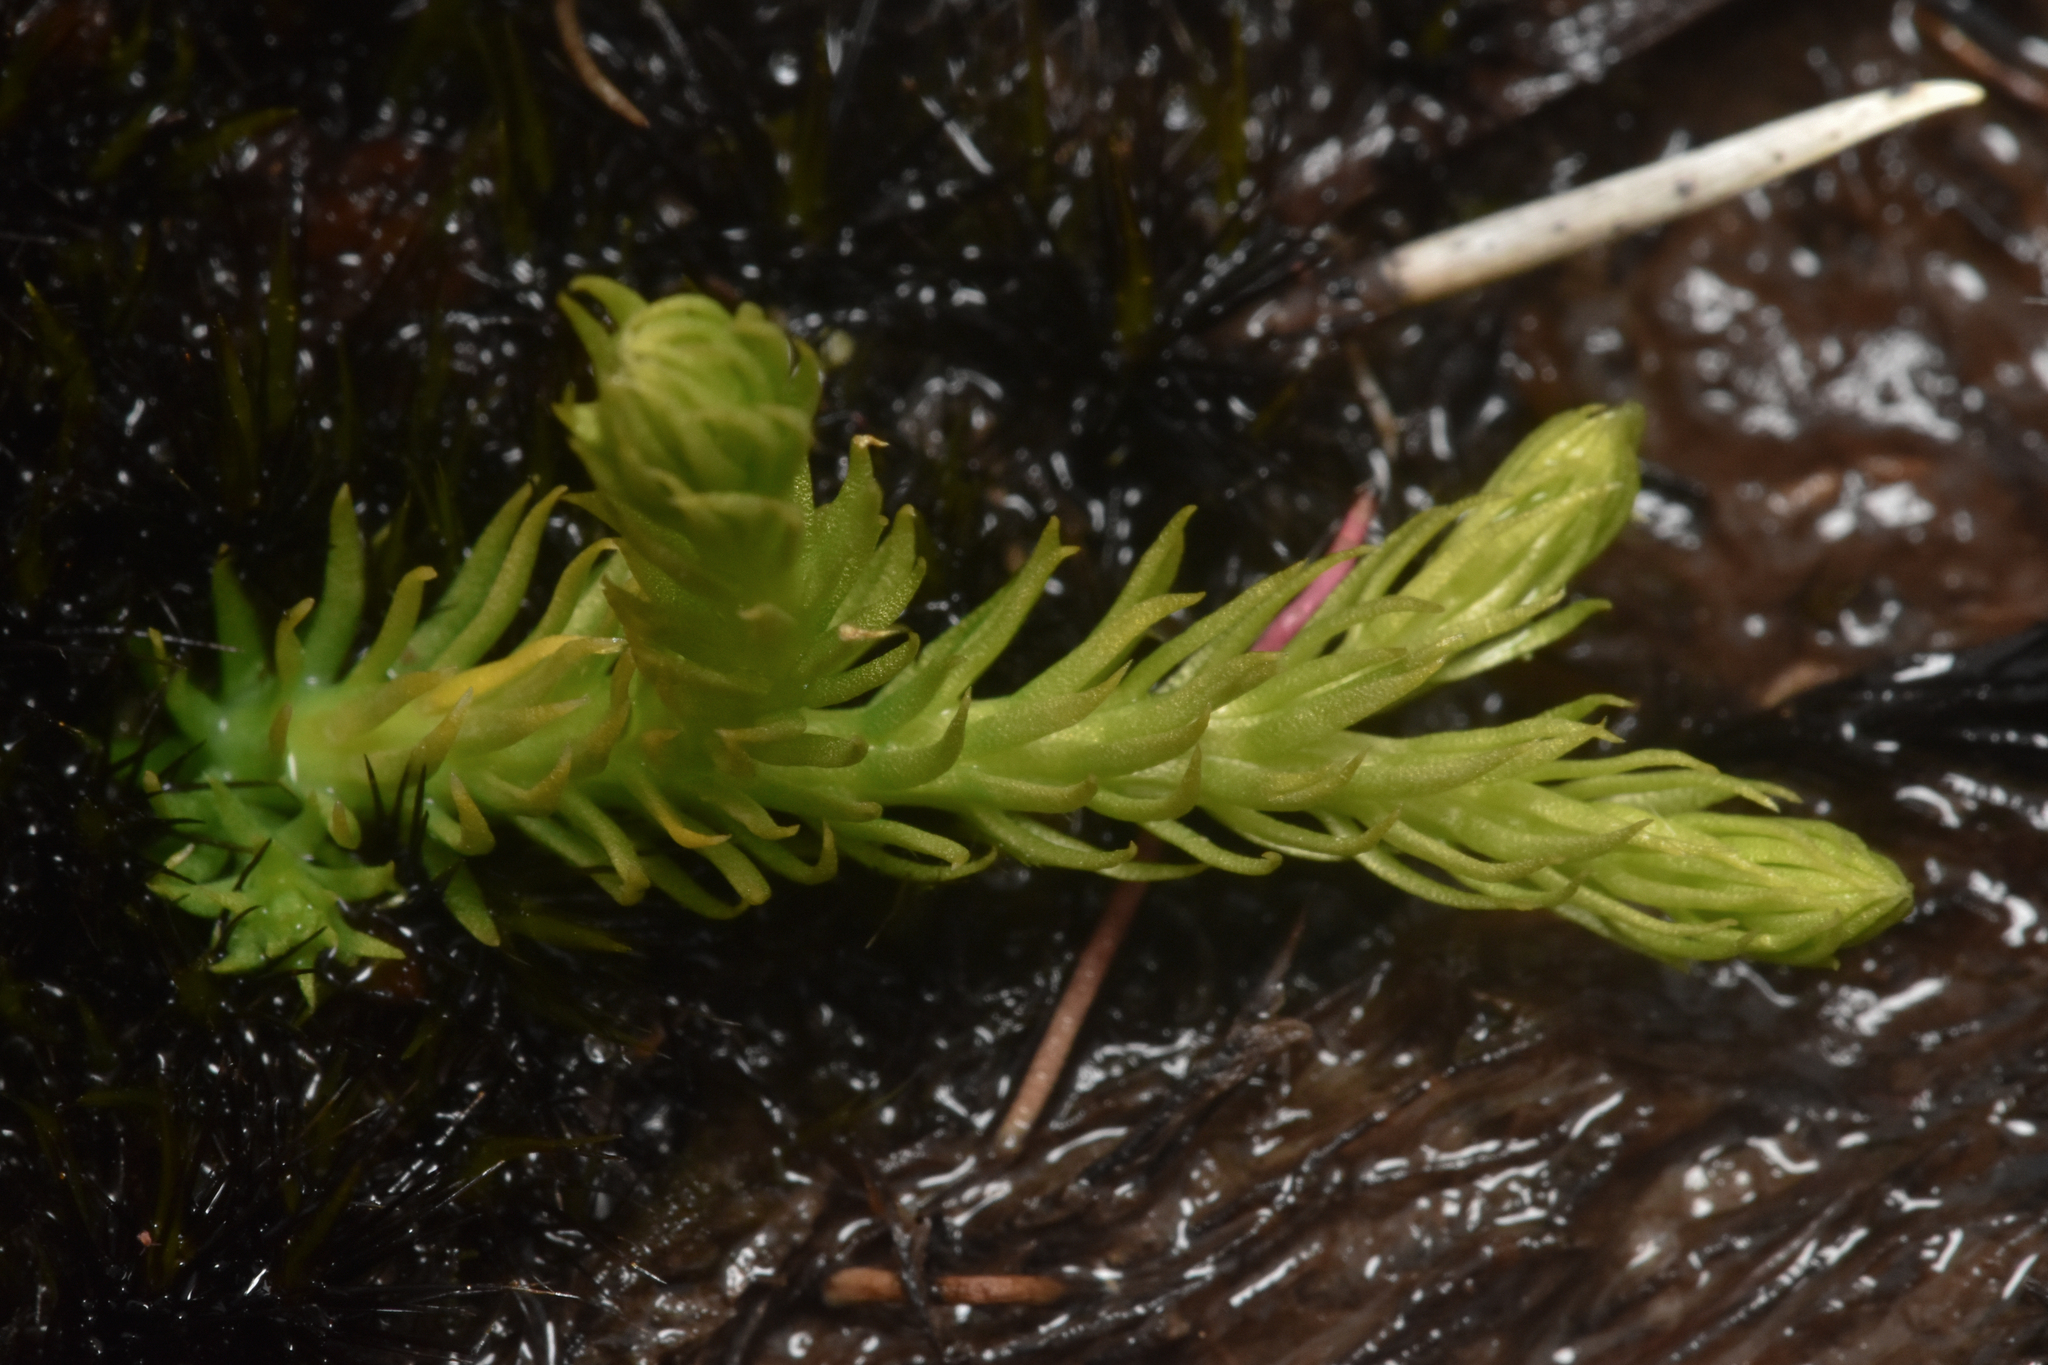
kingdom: Plantae
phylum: Tracheophyta
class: Lycopodiopsida
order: Lycopodiales
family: Lycopodiaceae
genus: Lycopodiella
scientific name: Lycopodiella inundata
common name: Marsh clubmoss
